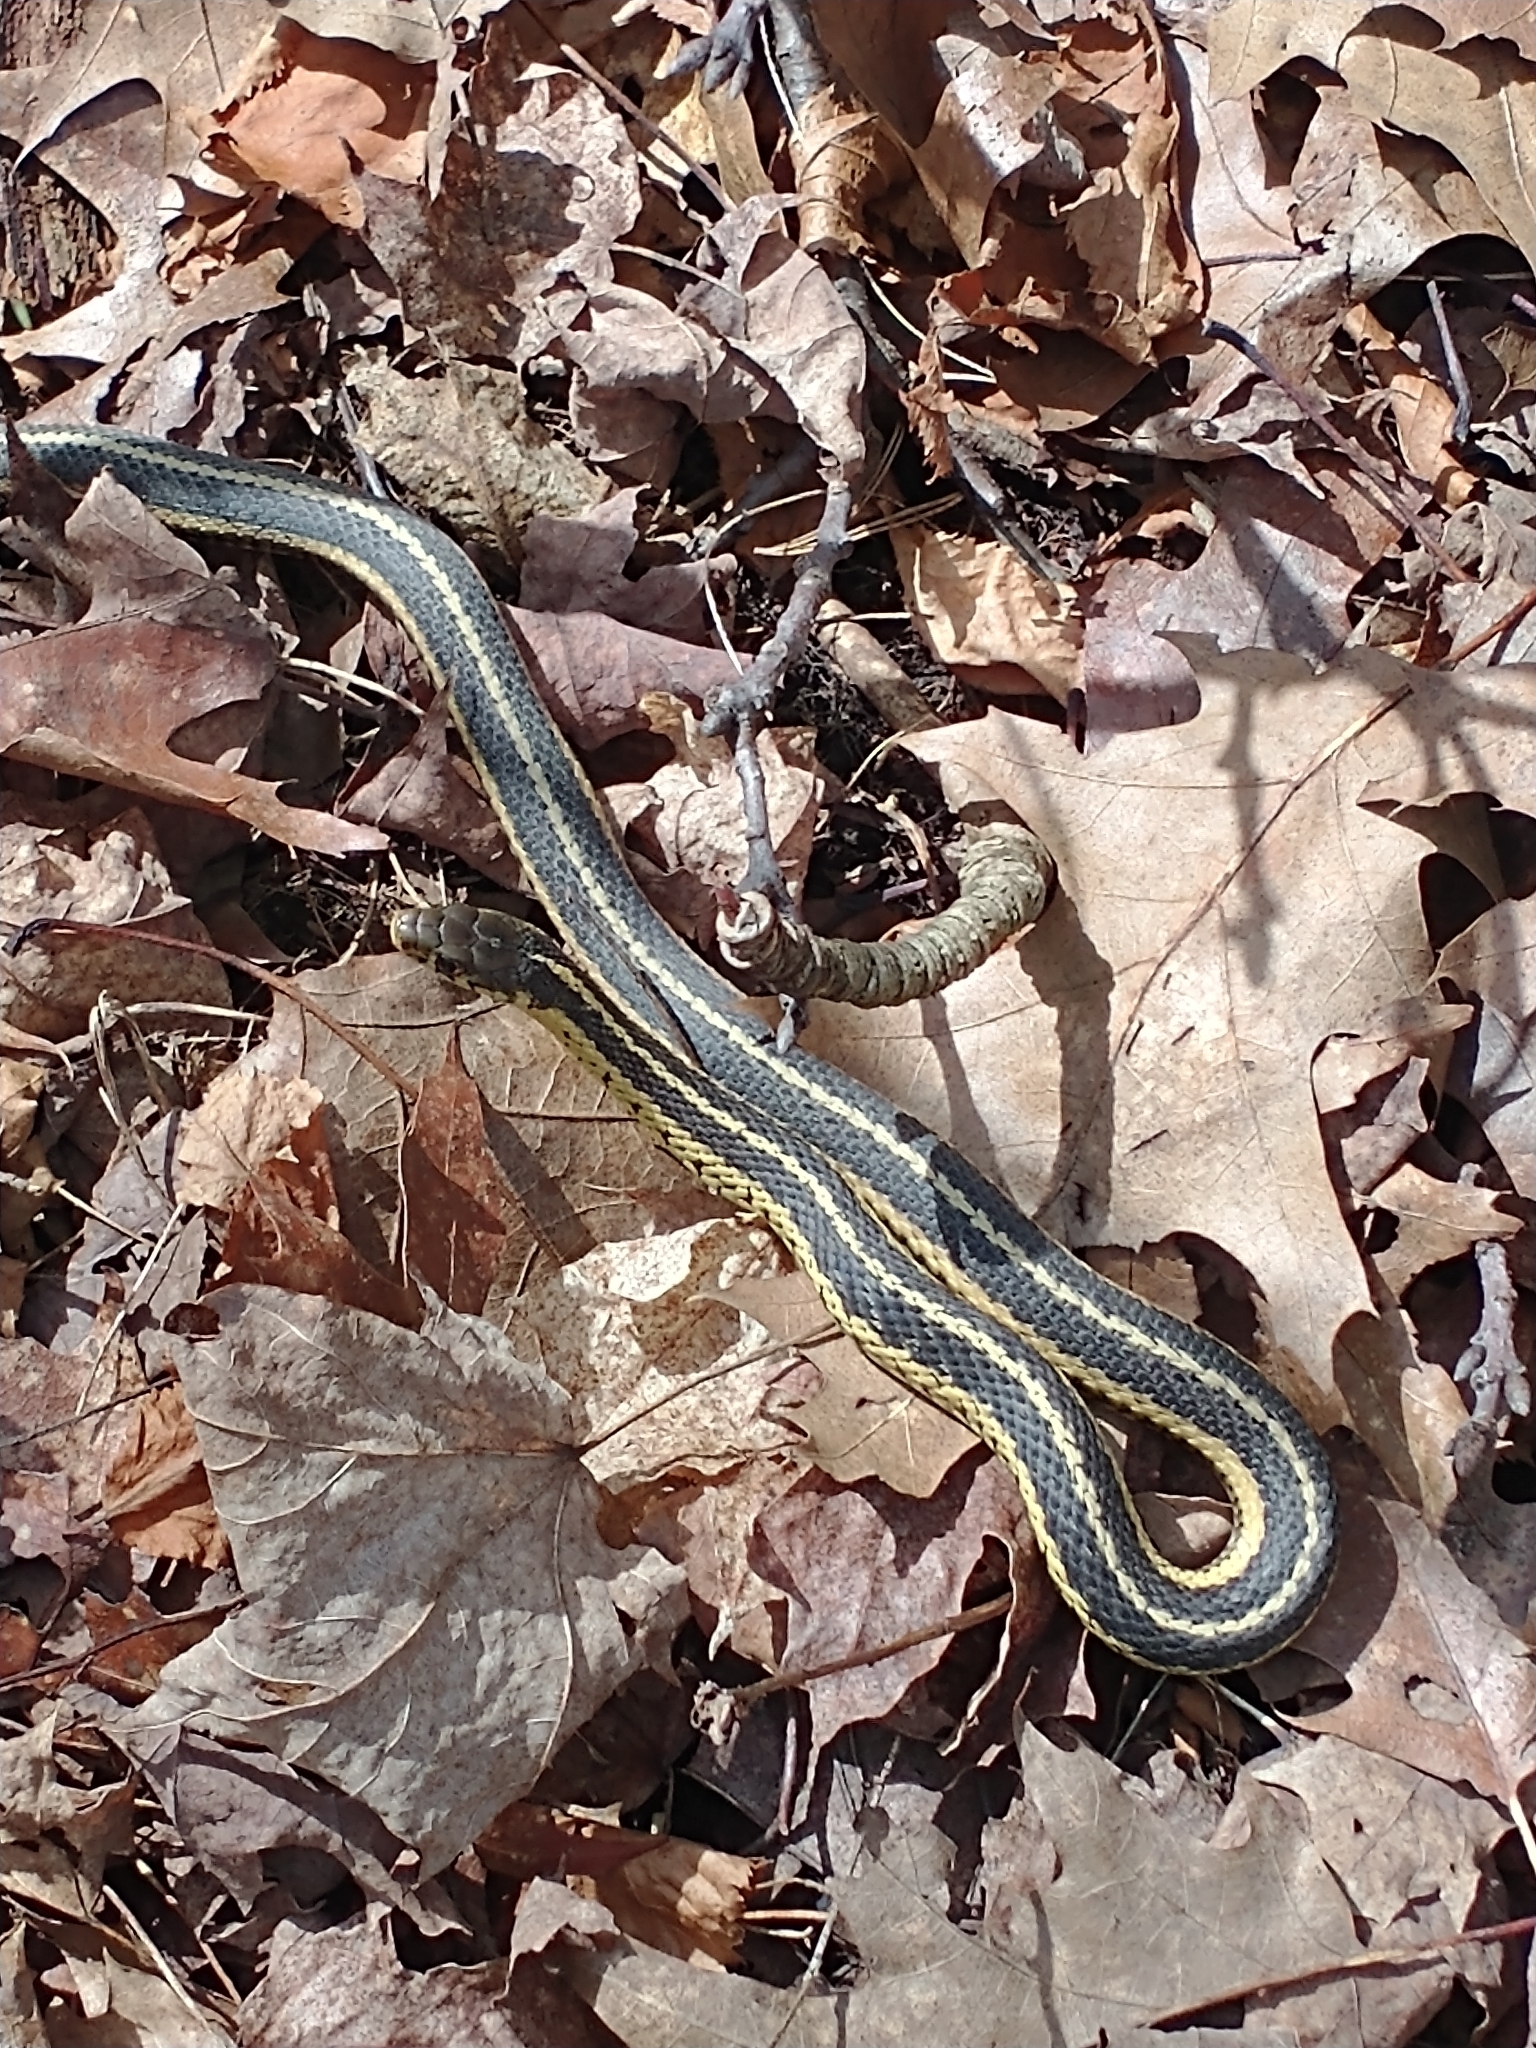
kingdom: Animalia
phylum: Chordata
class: Squamata
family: Colubridae
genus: Thamnophis
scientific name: Thamnophis sirtalis
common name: Common garter snake
